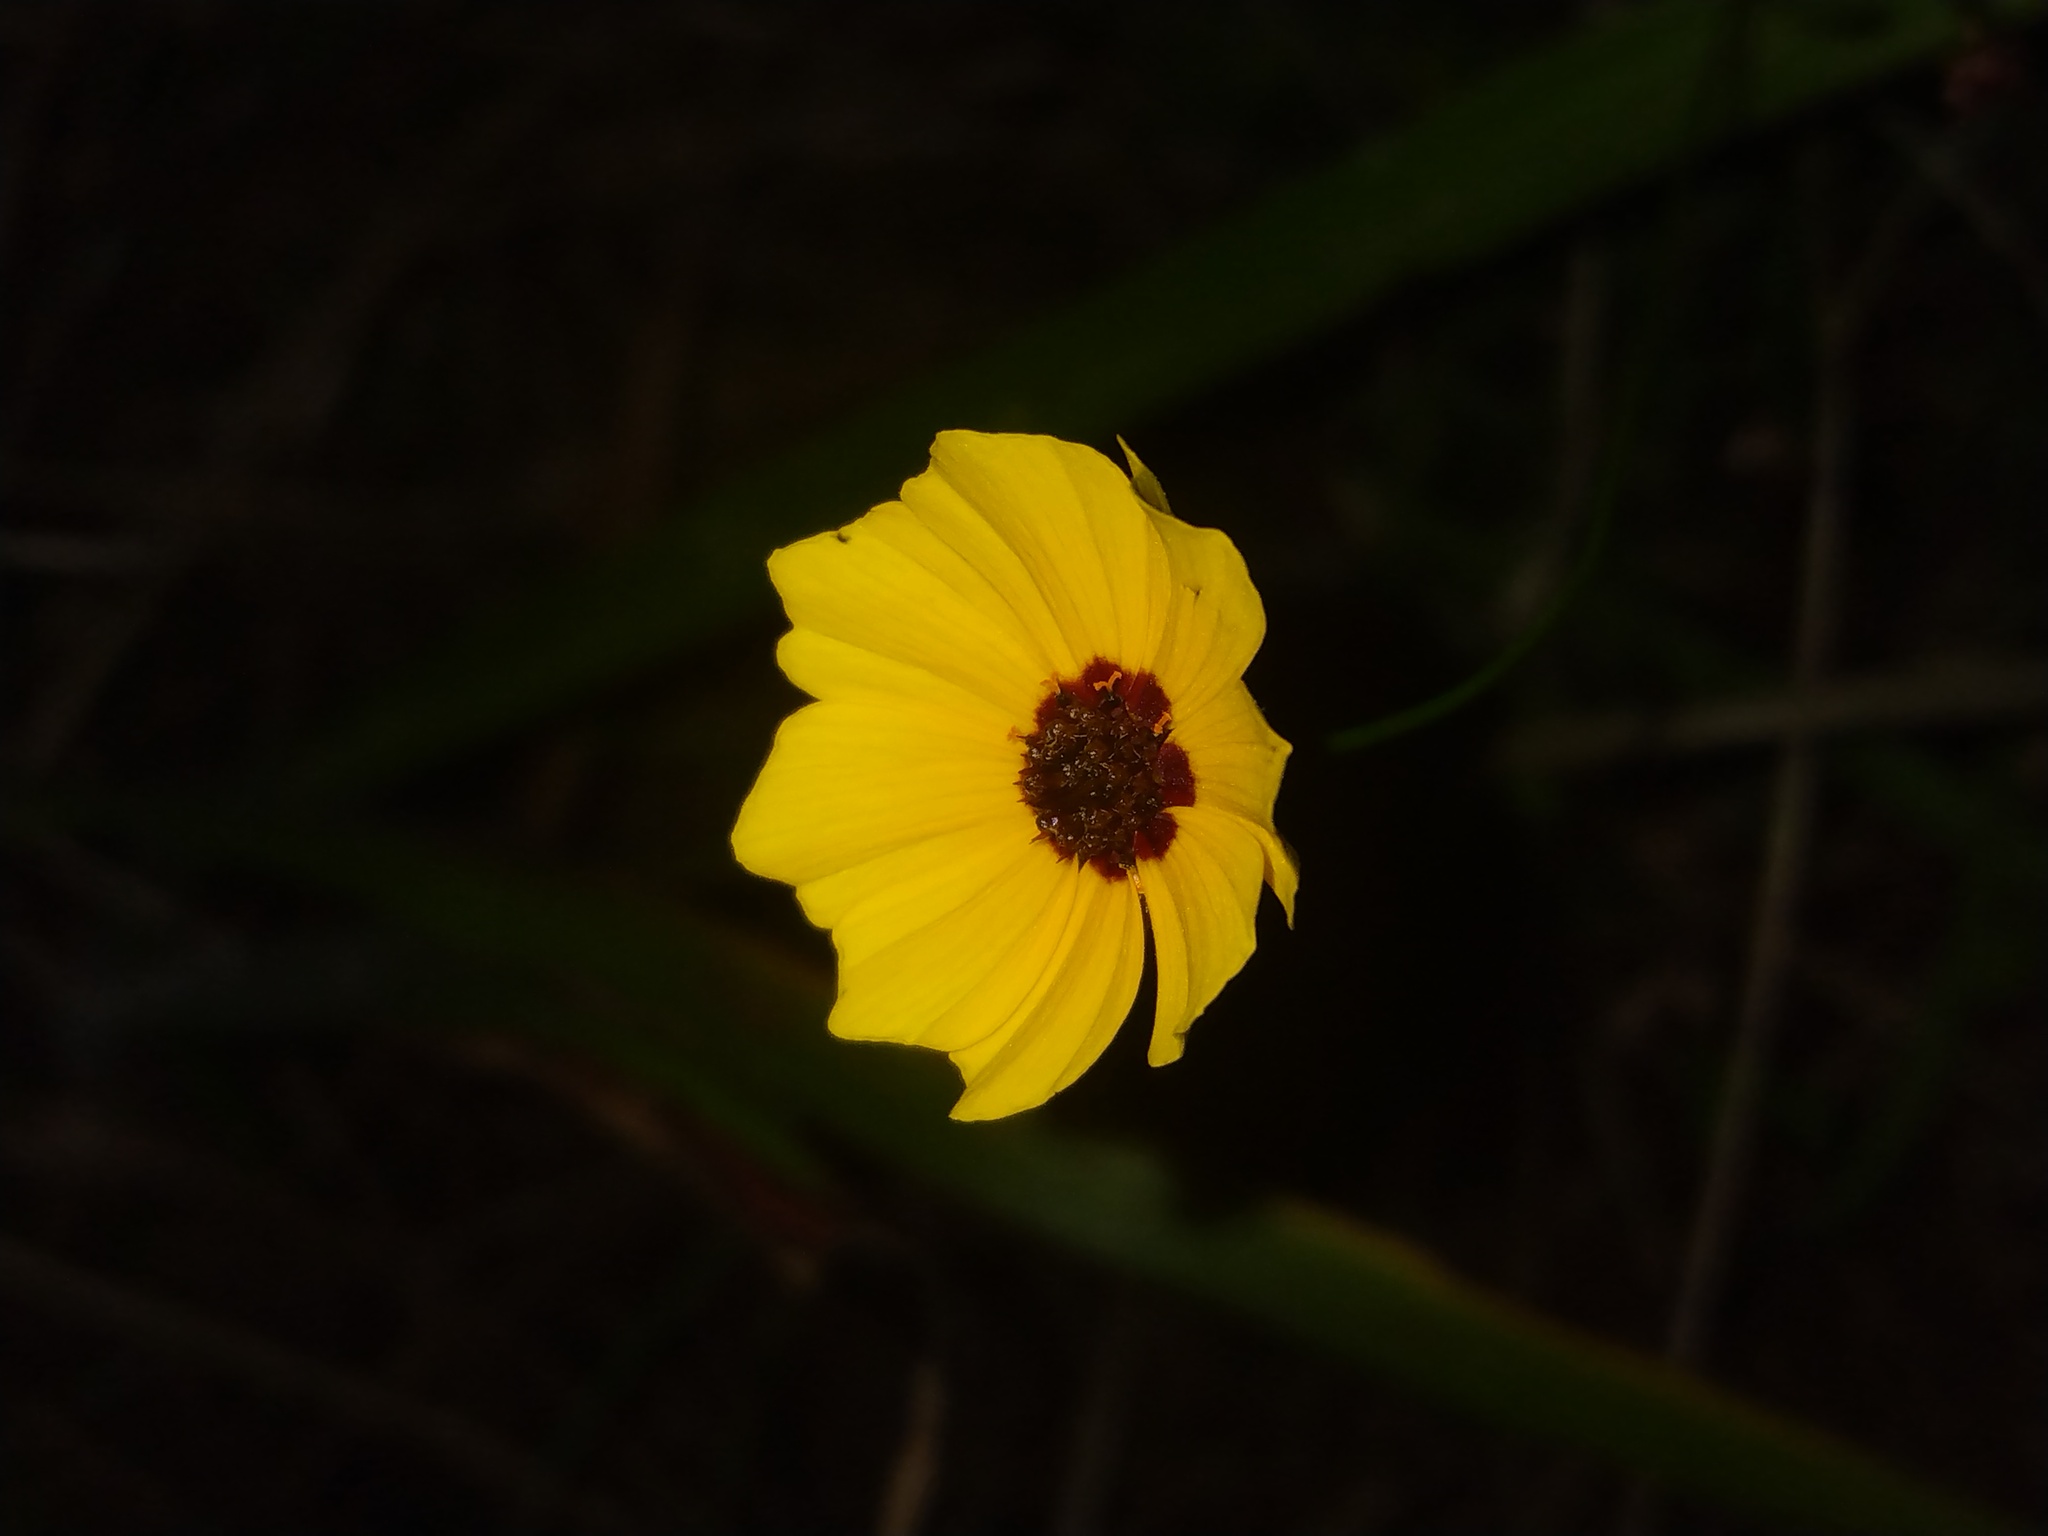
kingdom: Plantae
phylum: Tracheophyta
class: Magnoliopsida
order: Asterales
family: Asteraceae
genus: Coreopsis
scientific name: Coreopsis tinctoria
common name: Garden tickseed
